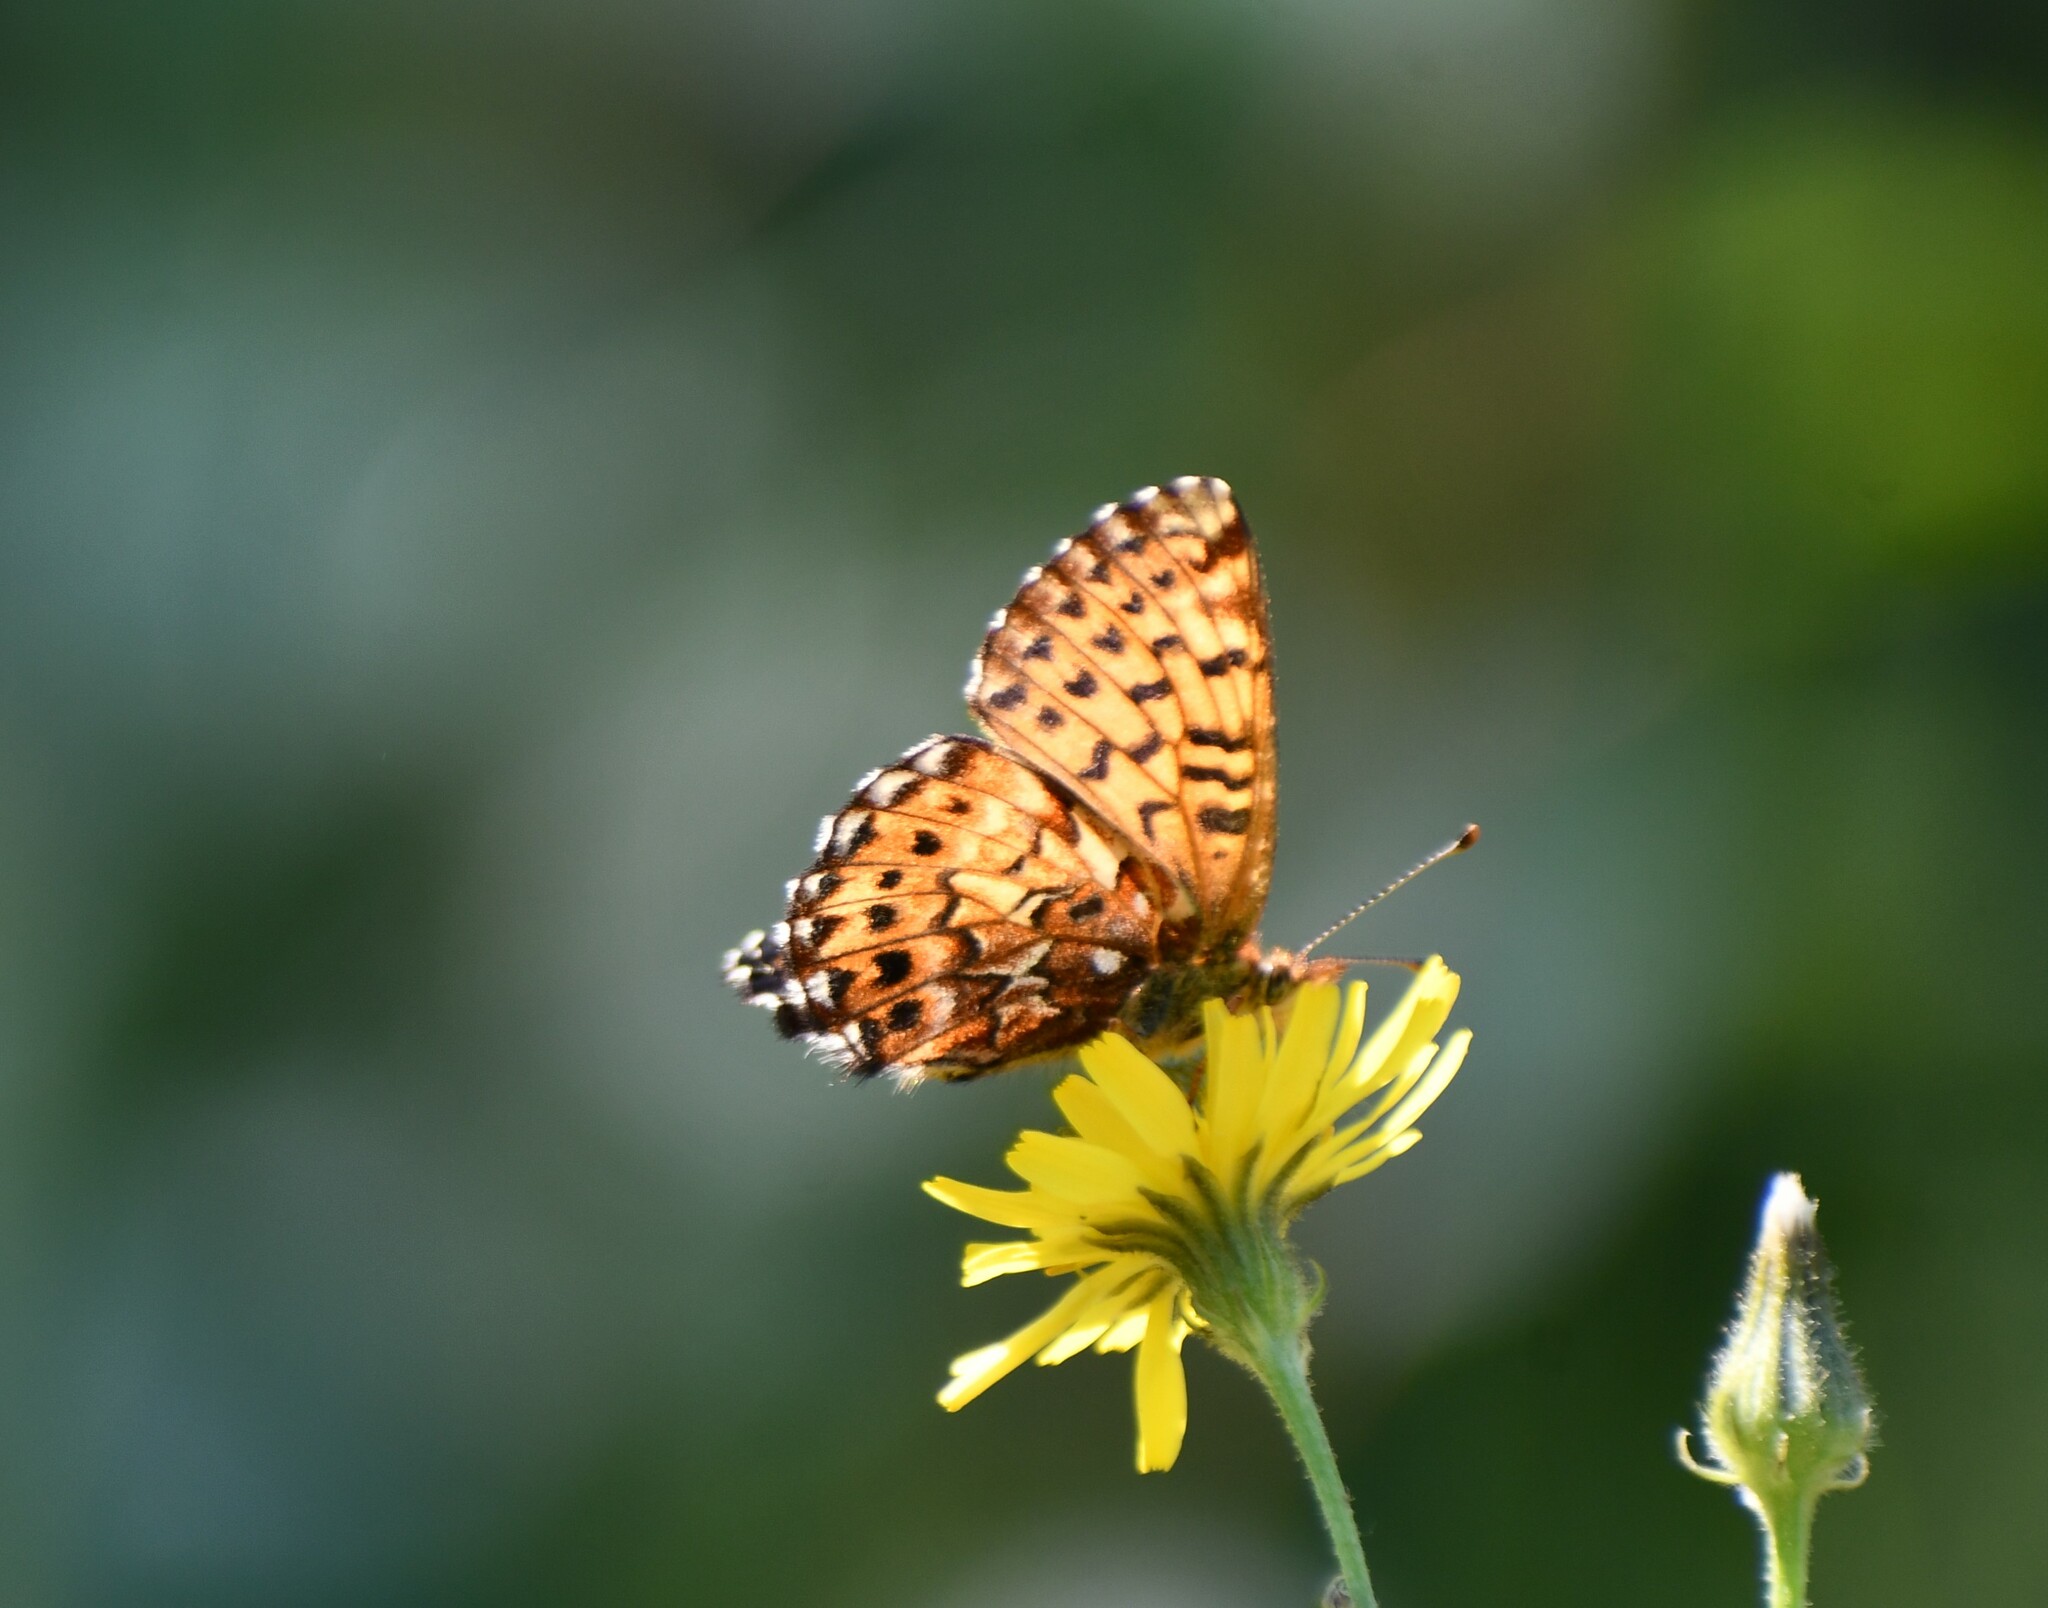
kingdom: Animalia
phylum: Arthropoda
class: Insecta
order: Lepidoptera
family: Nymphalidae
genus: Boloria
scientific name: Boloria chariclea
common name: Arctic fritillary
